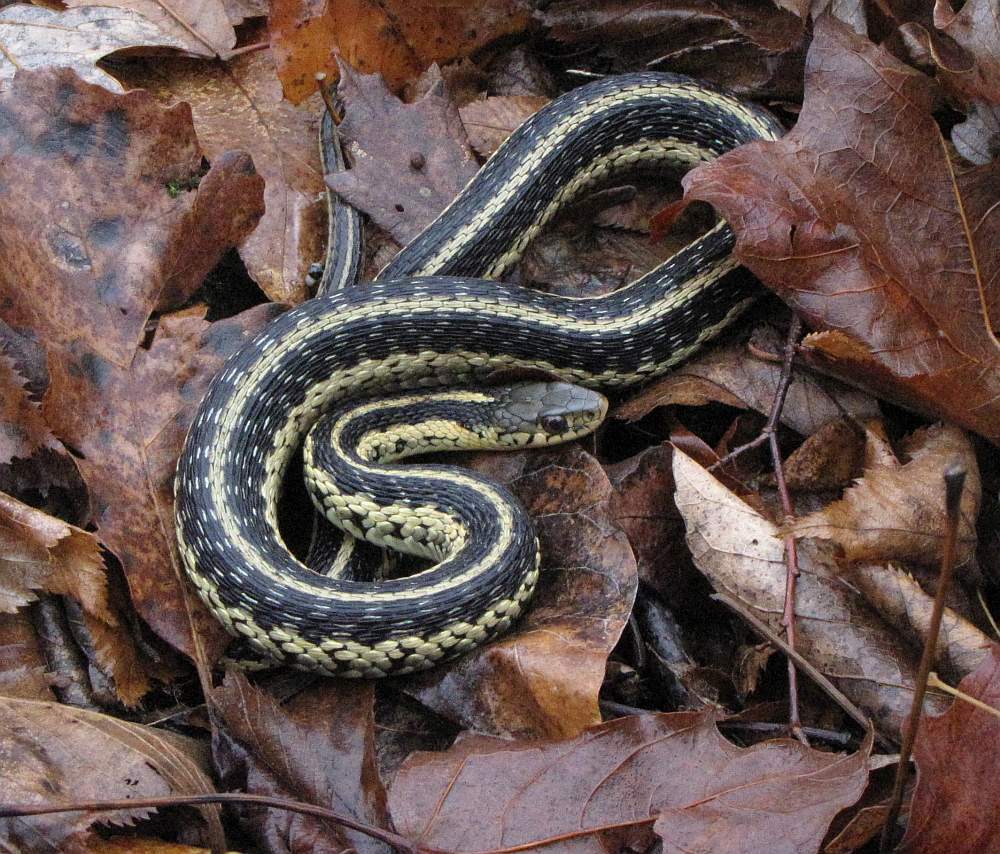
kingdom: Animalia
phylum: Chordata
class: Squamata
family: Colubridae
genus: Thamnophis
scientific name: Thamnophis sirtalis
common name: Common garter snake
